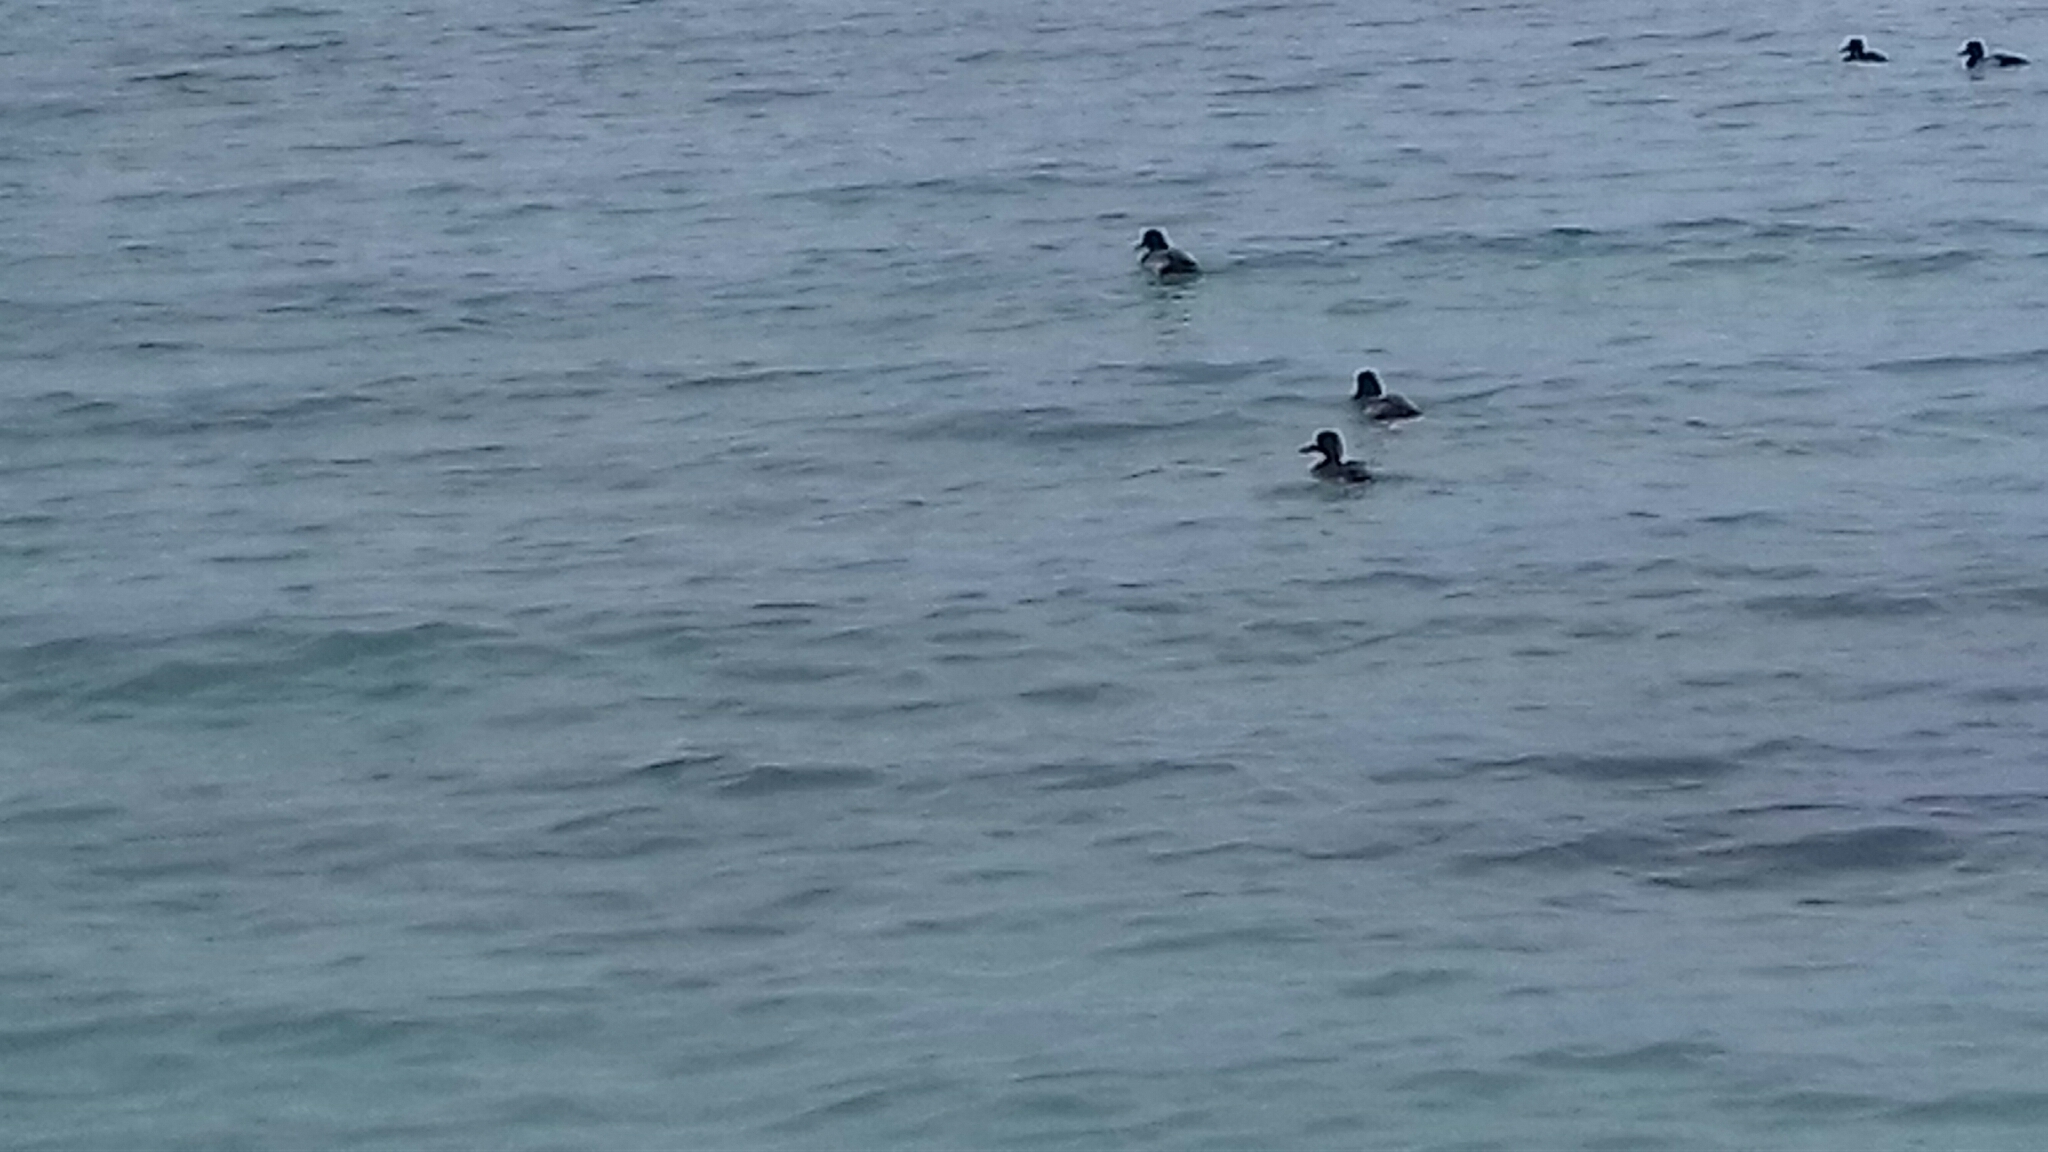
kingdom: Animalia
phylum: Chordata
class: Aves
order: Anseriformes
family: Anatidae
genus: Aythya
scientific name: Aythya affinis
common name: Lesser scaup
